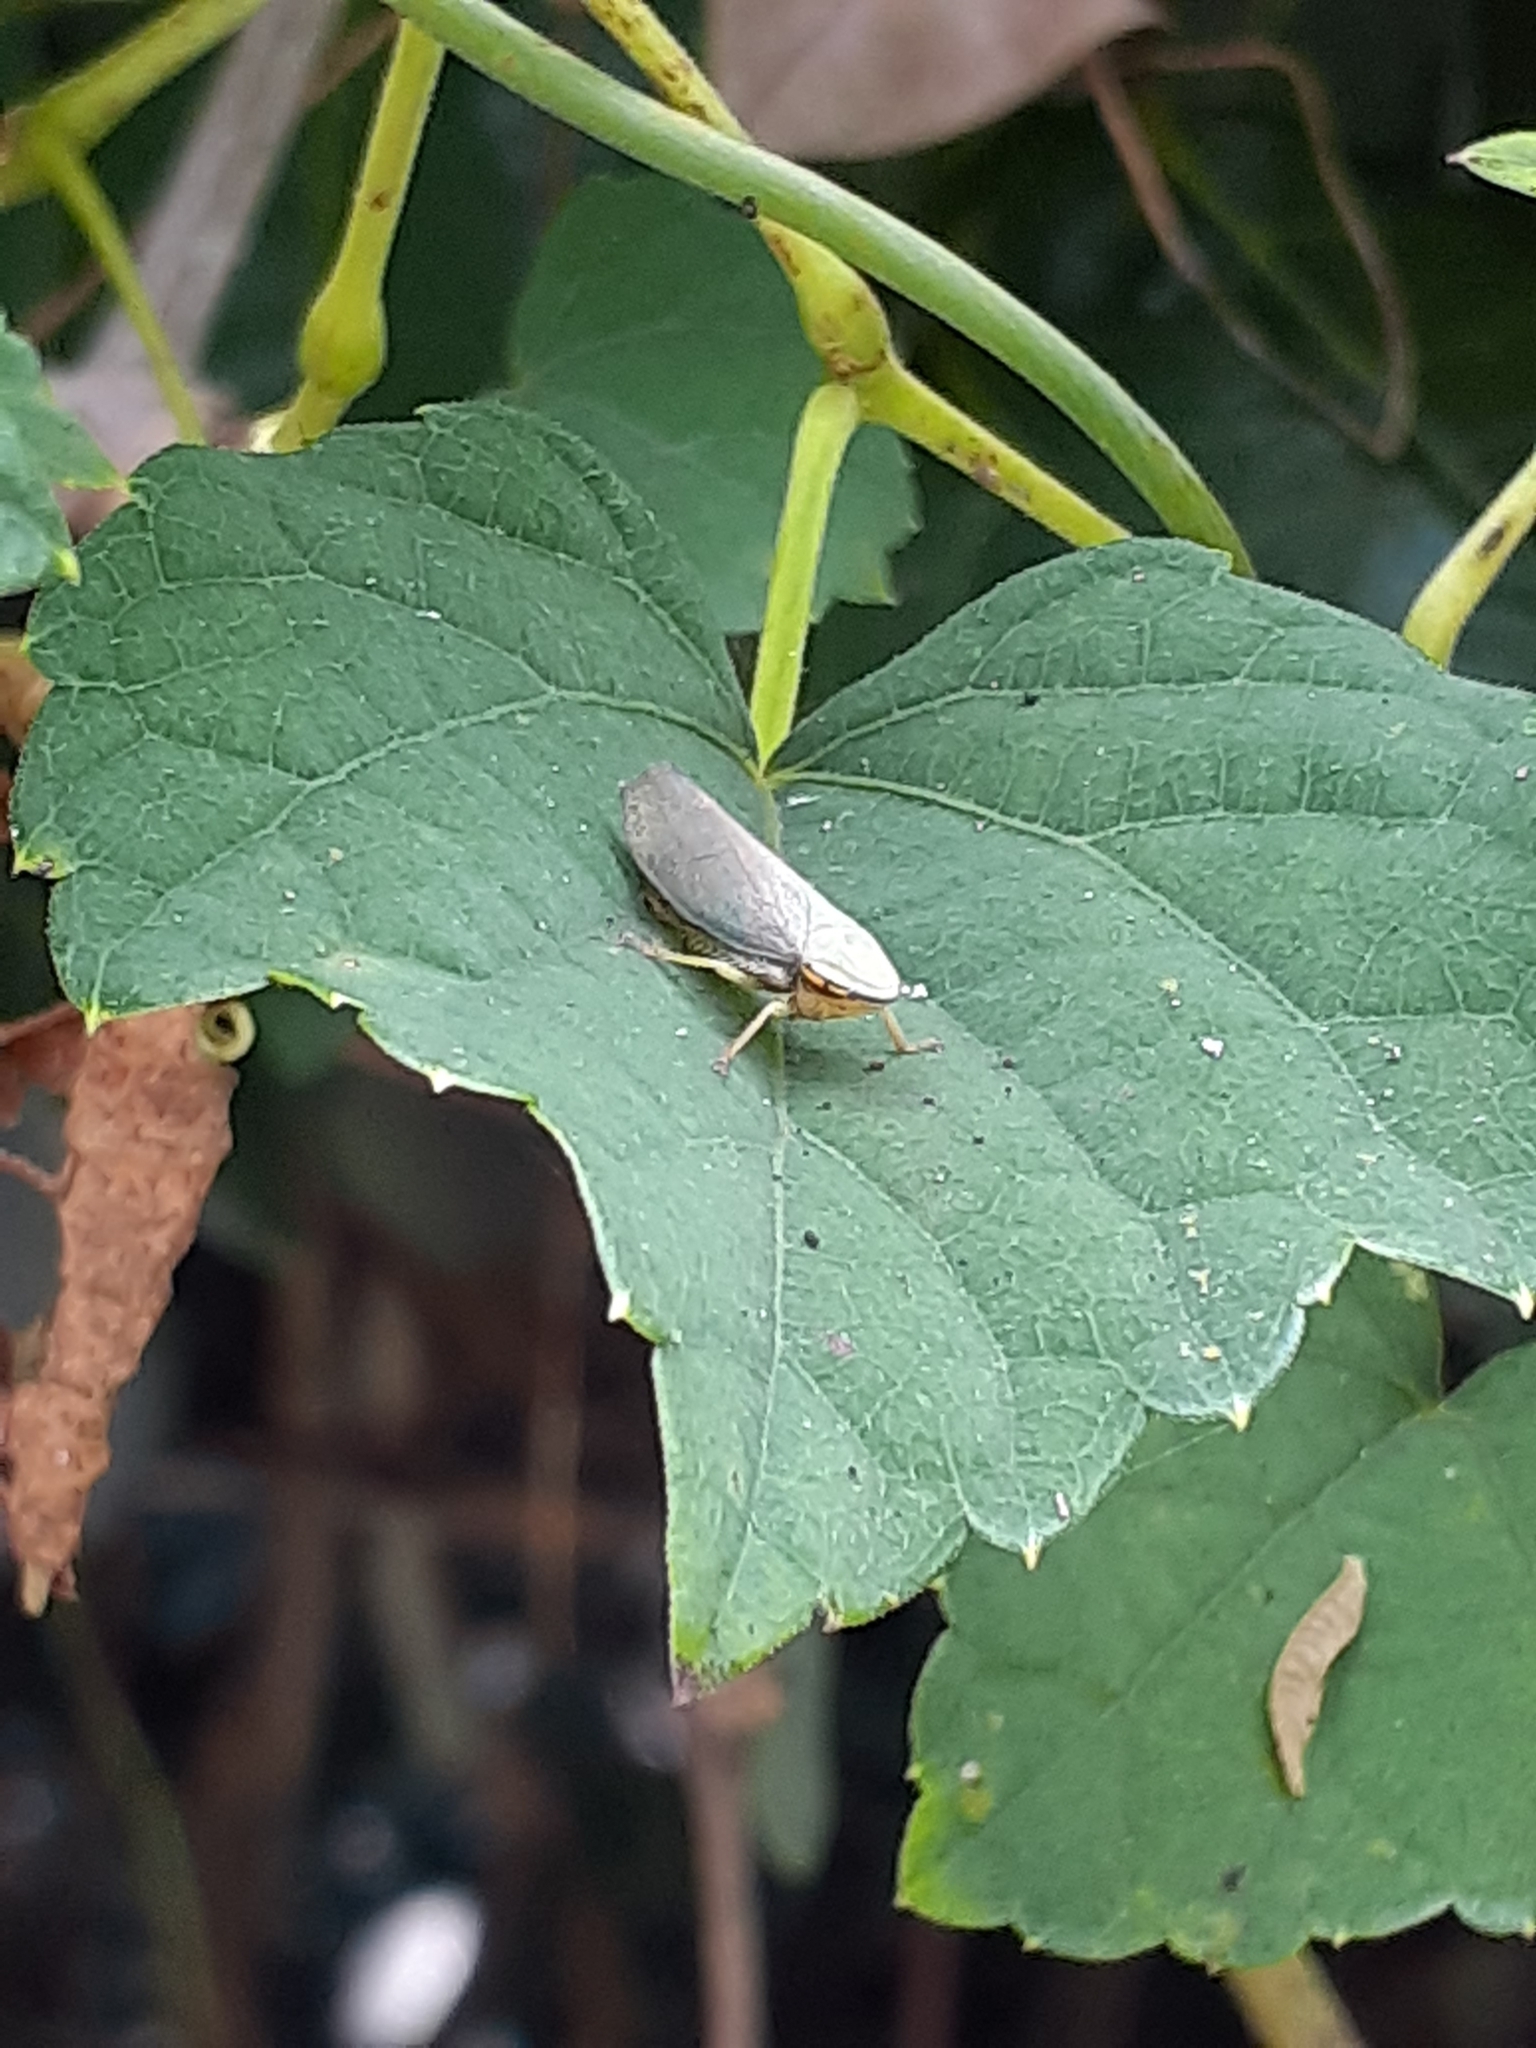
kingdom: Animalia
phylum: Arthropoda
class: Insecta
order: Hemiptera
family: Cicadellidae
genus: Tartessus
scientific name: Tartessus ferrugineus
